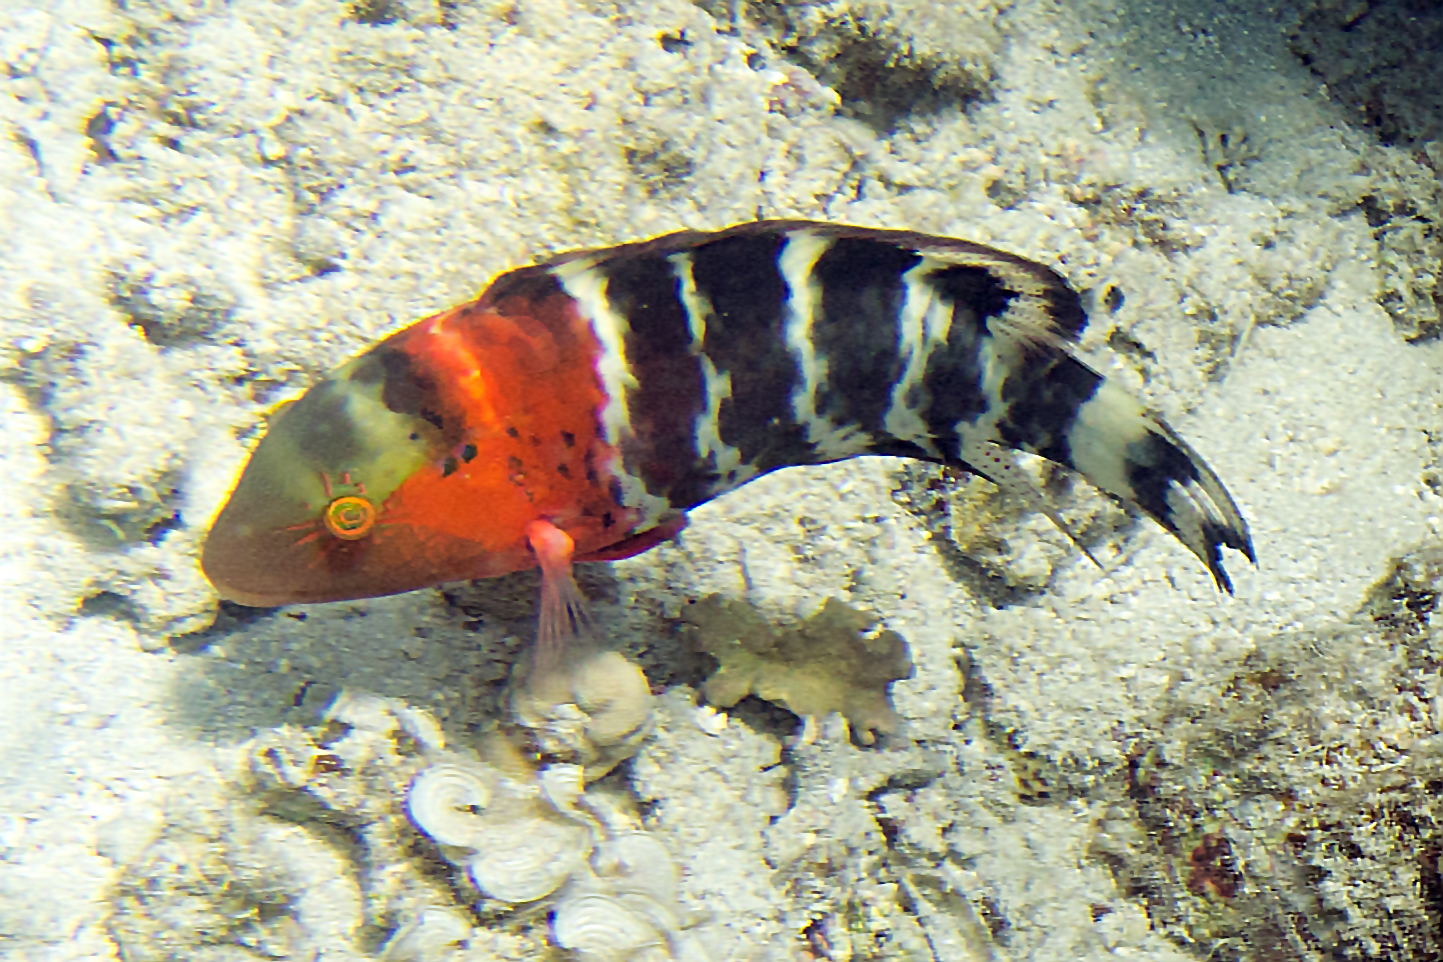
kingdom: Animalia
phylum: Chordata
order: Perciformes
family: Labridae
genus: Cheilinus
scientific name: Cheilinus fasciatus
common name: Red-breasted wrasse
